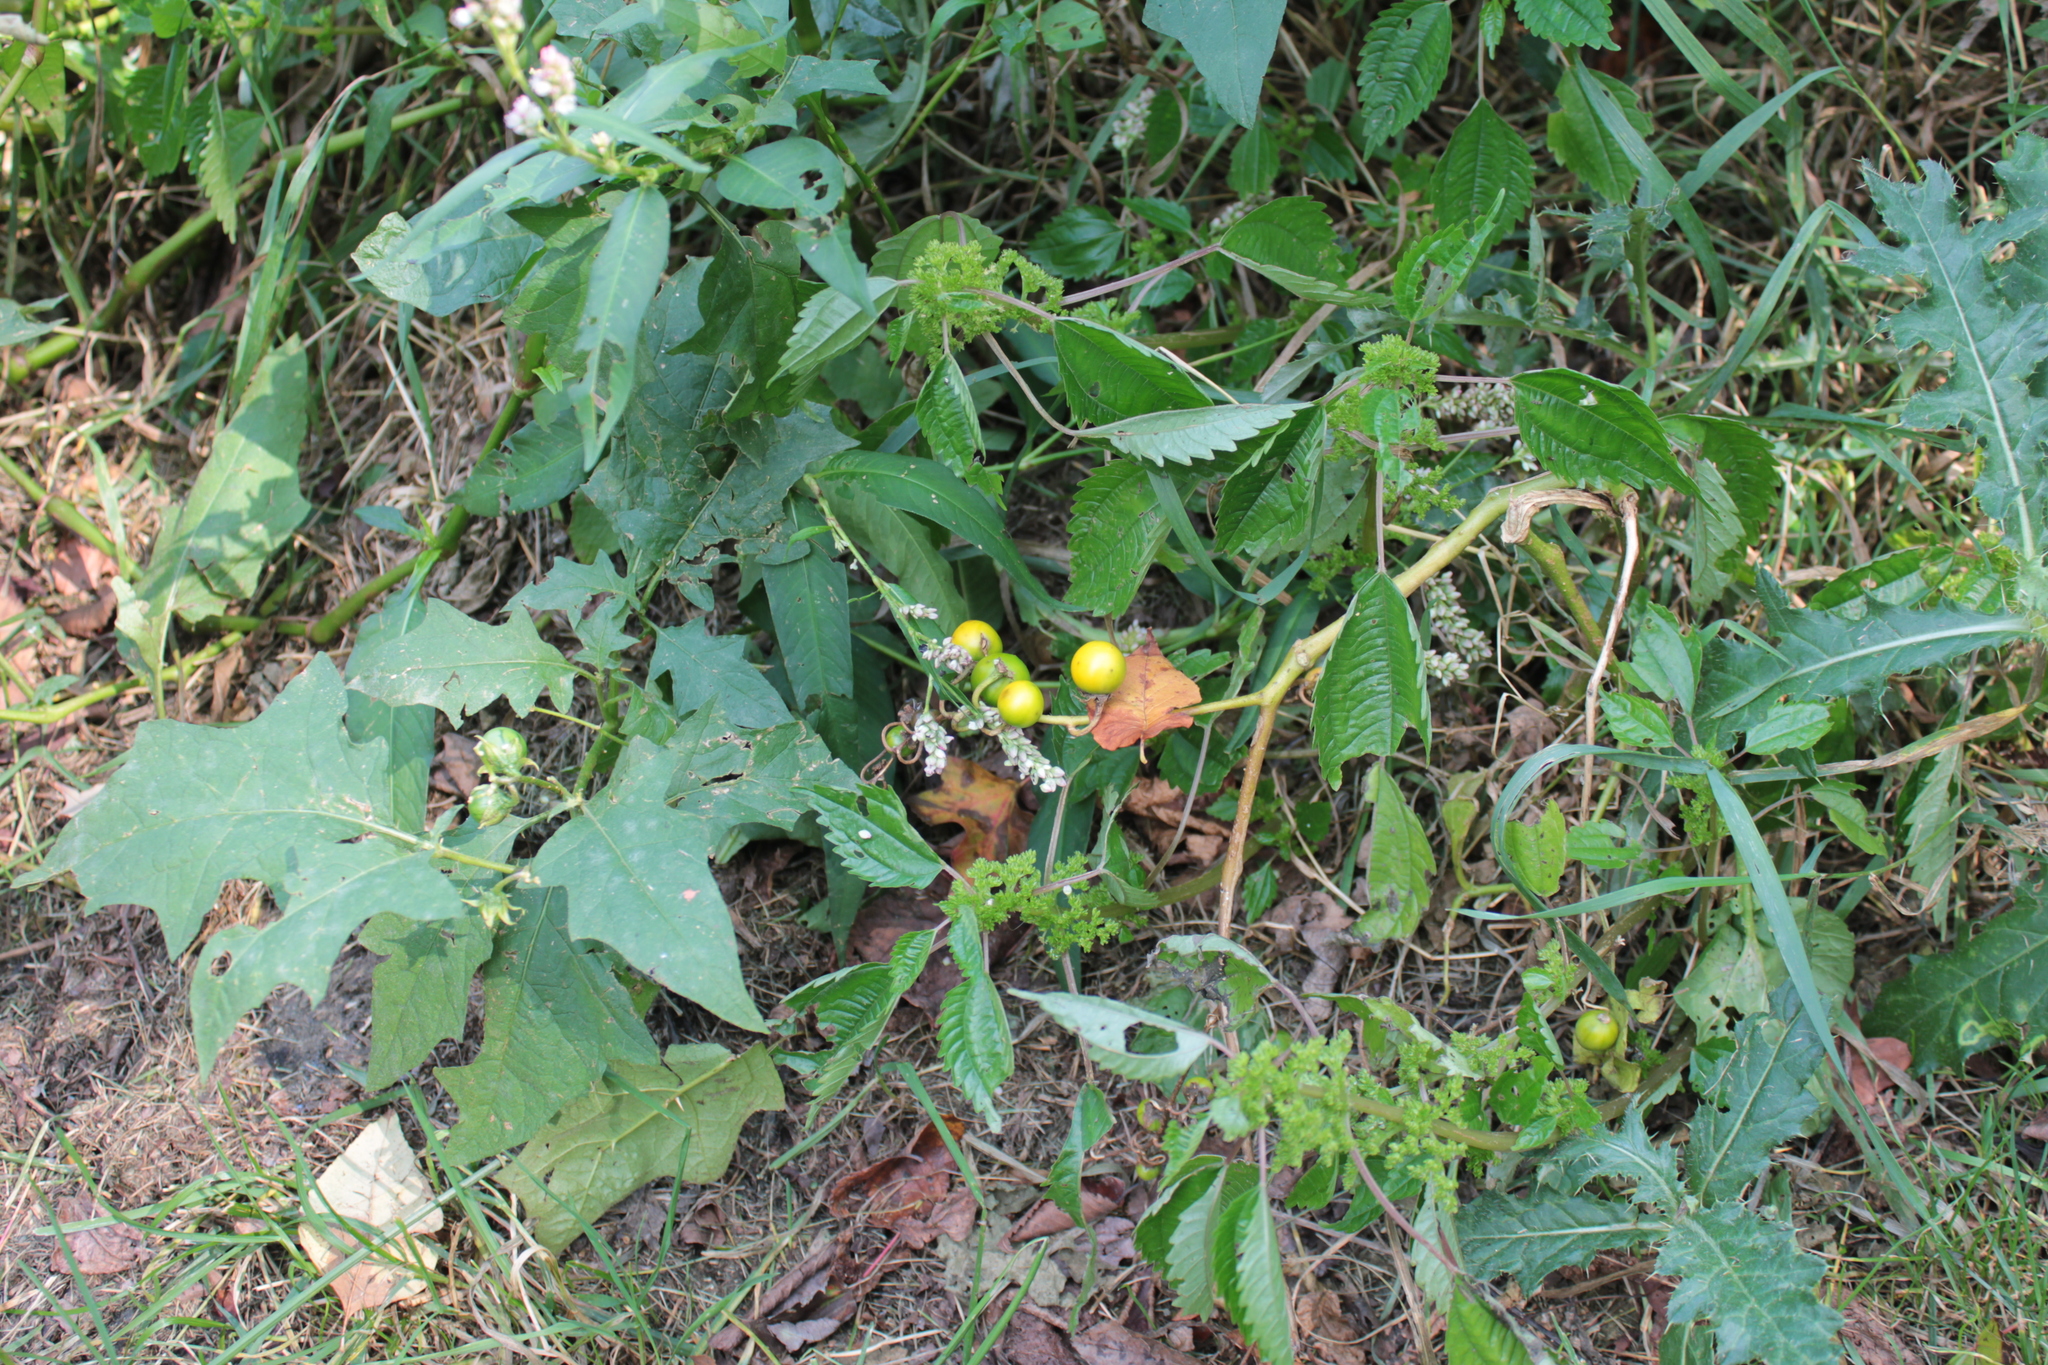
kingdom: Plantae
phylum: Tracheophyta
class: Magnoliopsida
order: Solanales
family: Solanaceae
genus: Solanum
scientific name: Solanum carolinense
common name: Horse-nettle
